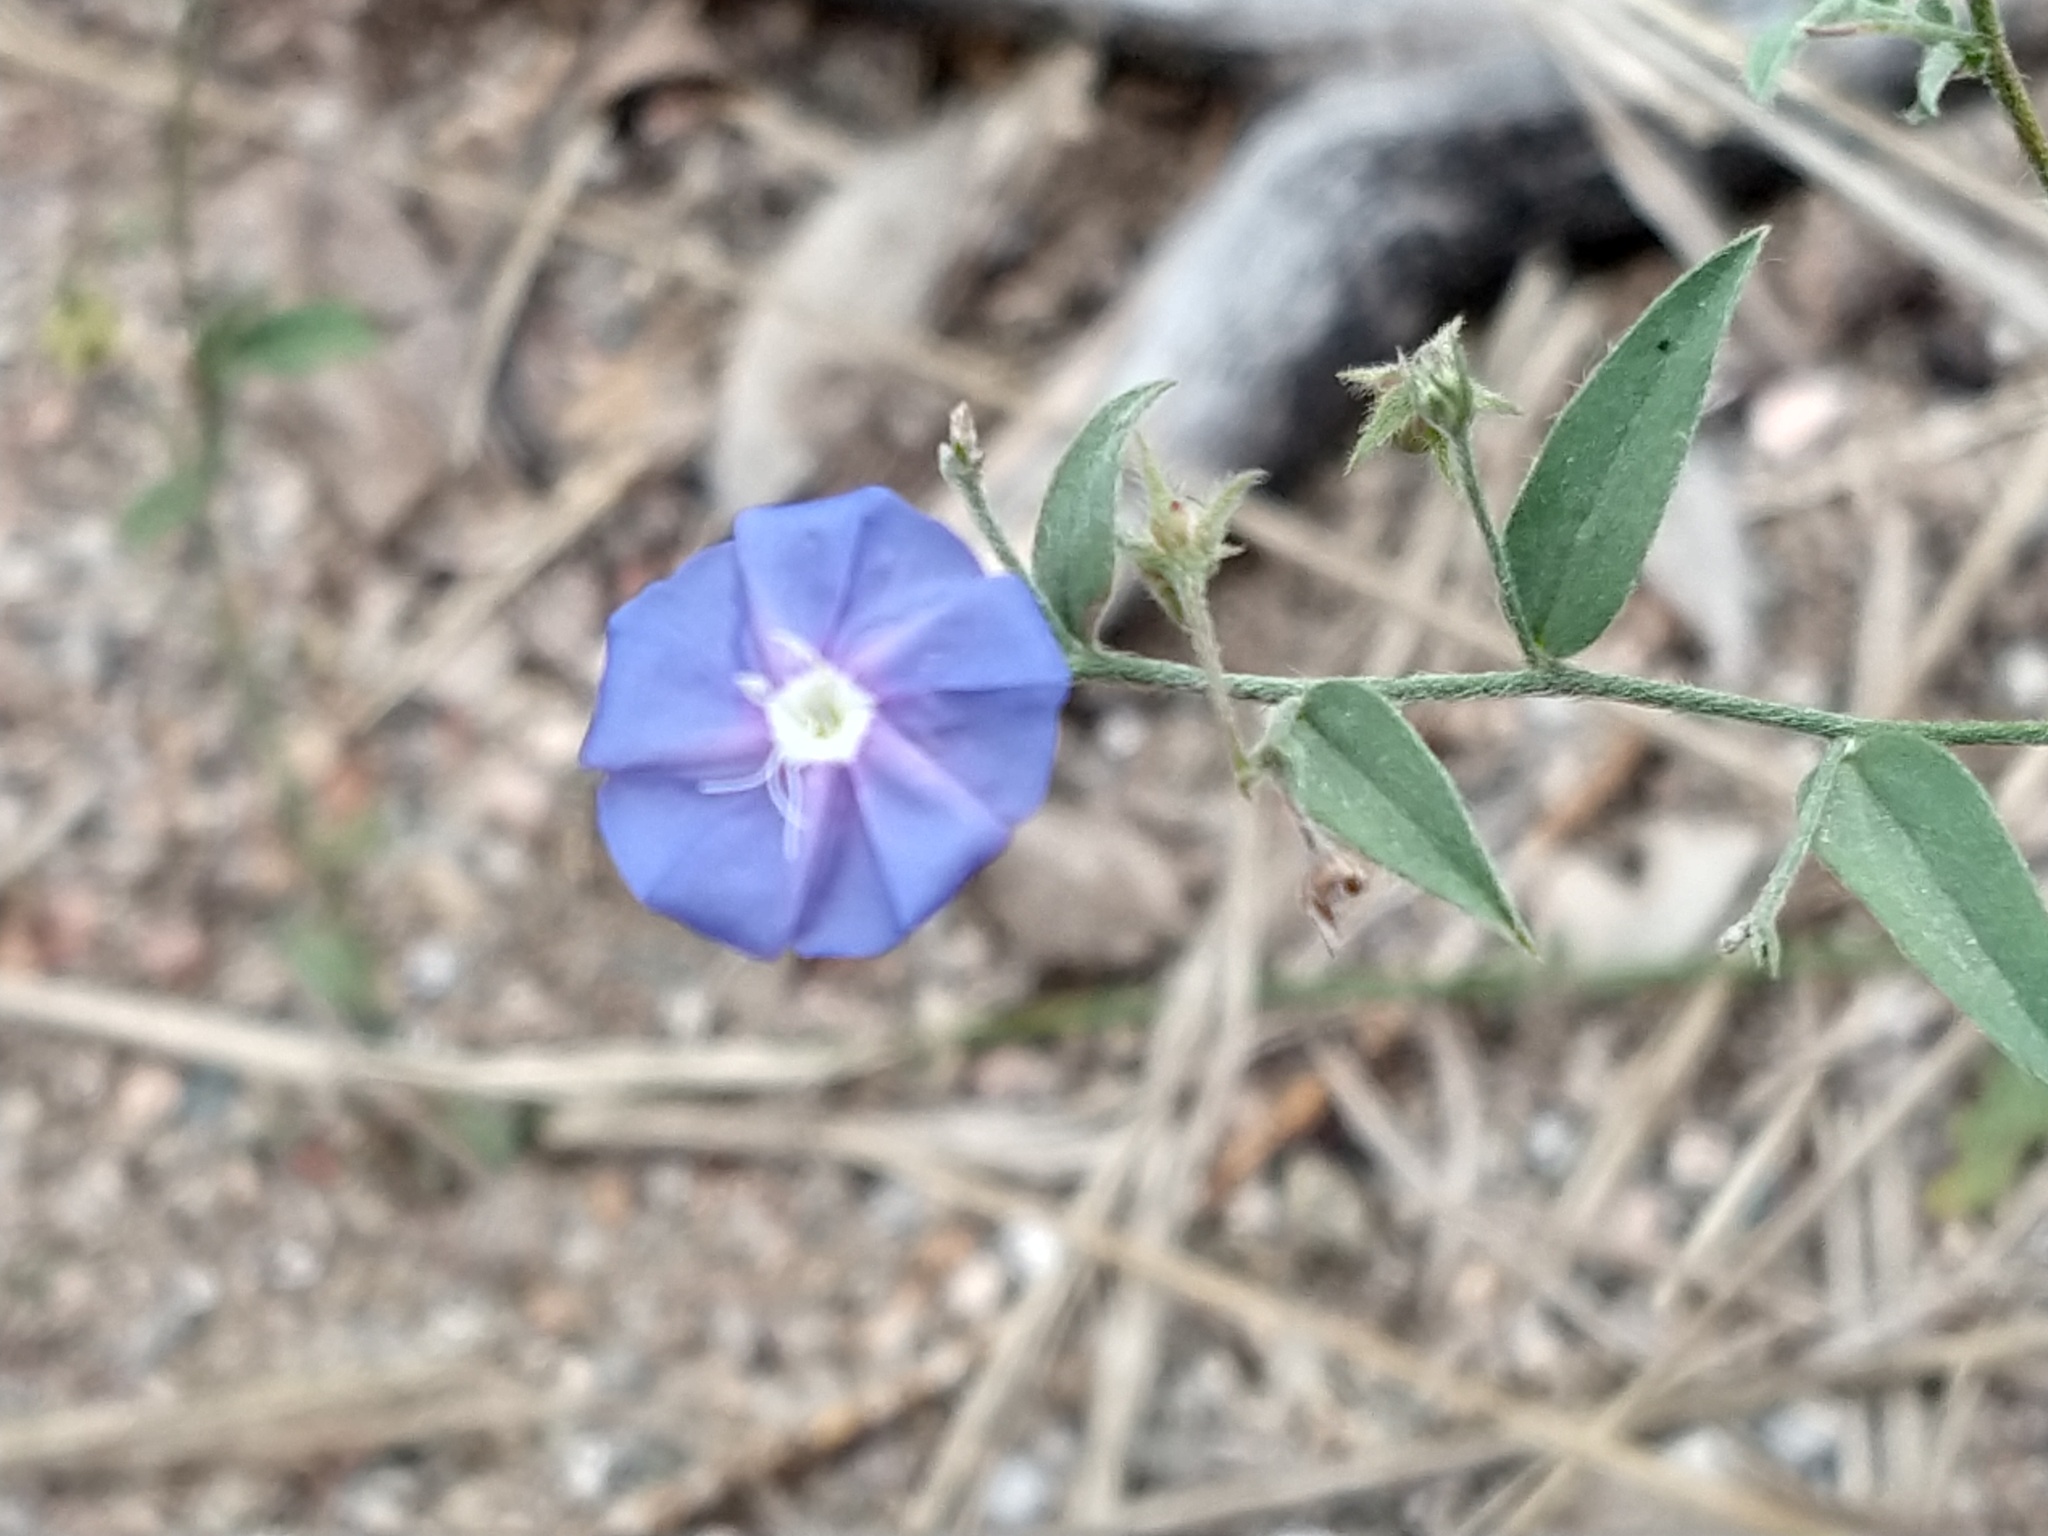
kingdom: Plantae
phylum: Tracheophyta
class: Magnoliopsida
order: Solanales
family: Convolvulaceae
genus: Evolvulus
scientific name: Evolvulus arizonicus
